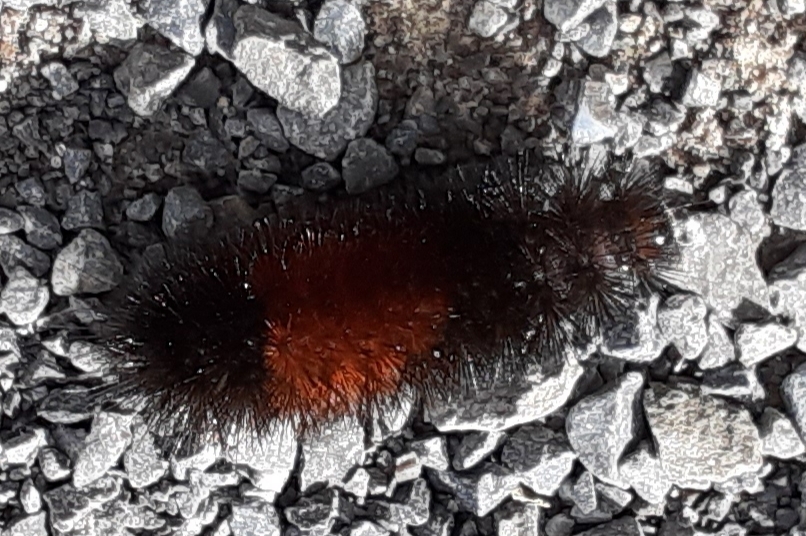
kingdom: Animalia
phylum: Arthropoda
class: Insecta
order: Lepidoptera
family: Erebidae
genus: Pyrrharctia
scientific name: Pyrrharctia isabella
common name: Isabella tiger moth
